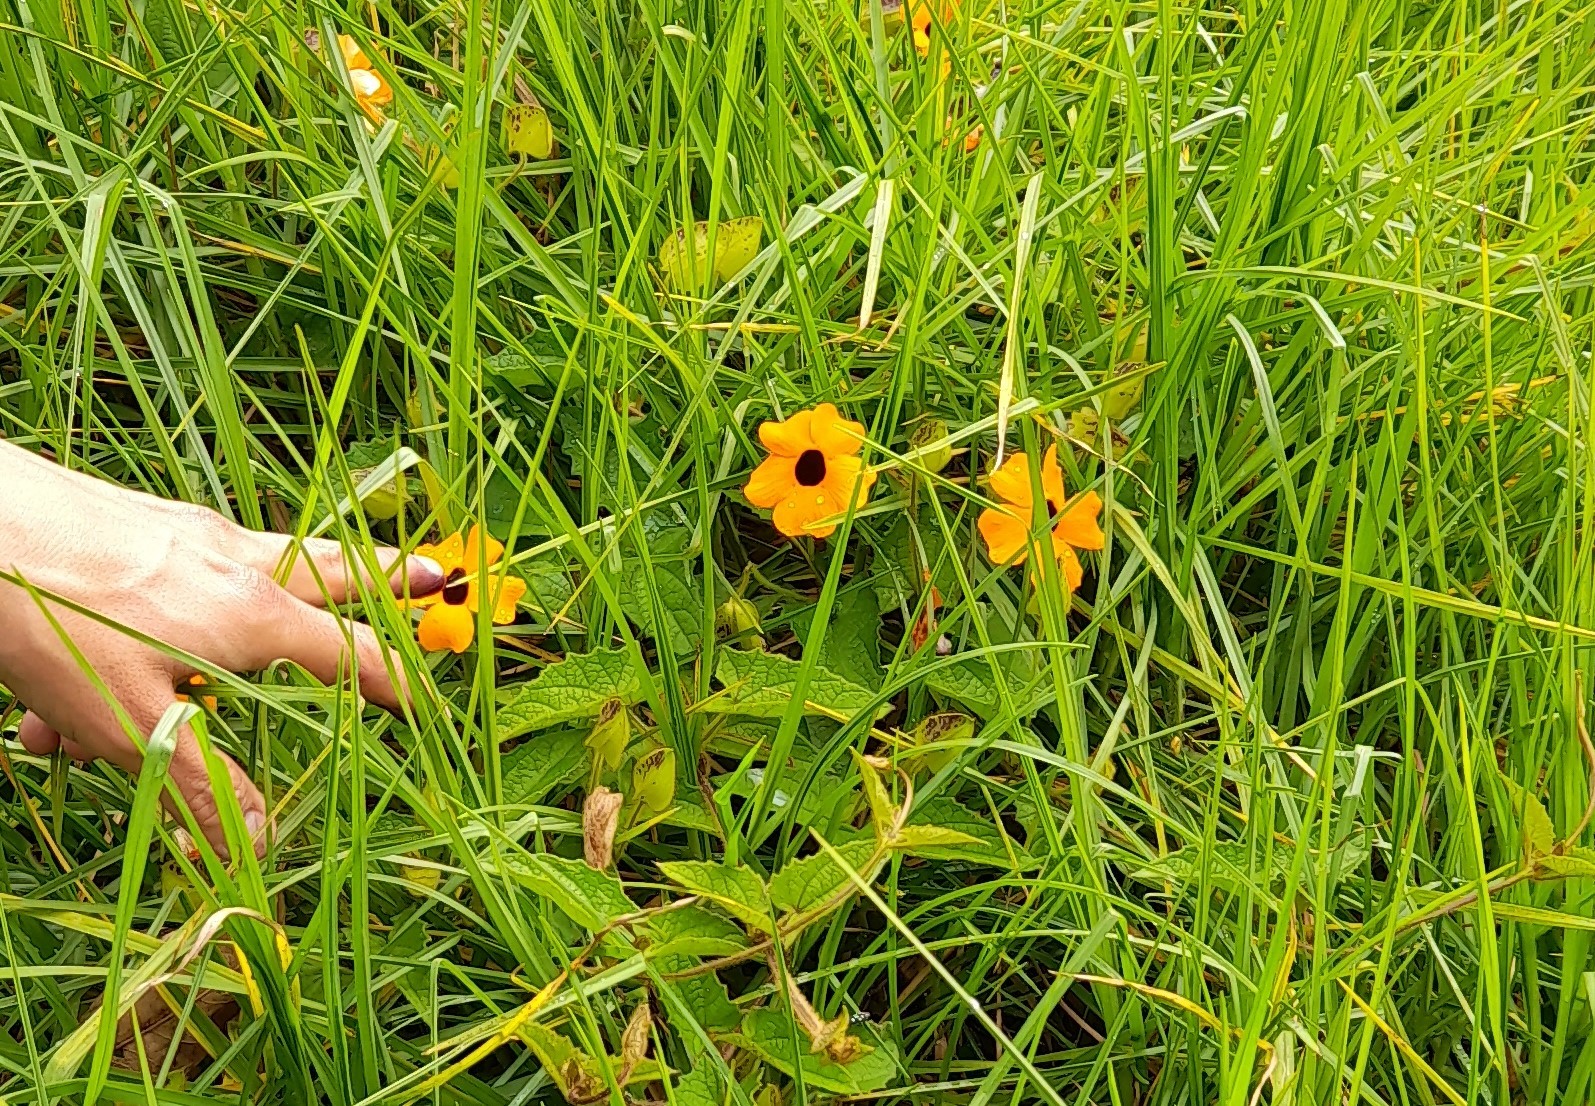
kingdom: Plantae
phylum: Tracheophyta
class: Magnoliopsida
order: Lamiales
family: Acanthaceae
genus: Thunbergia
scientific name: Thunbergia alata
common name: Blackeyed susan vine
